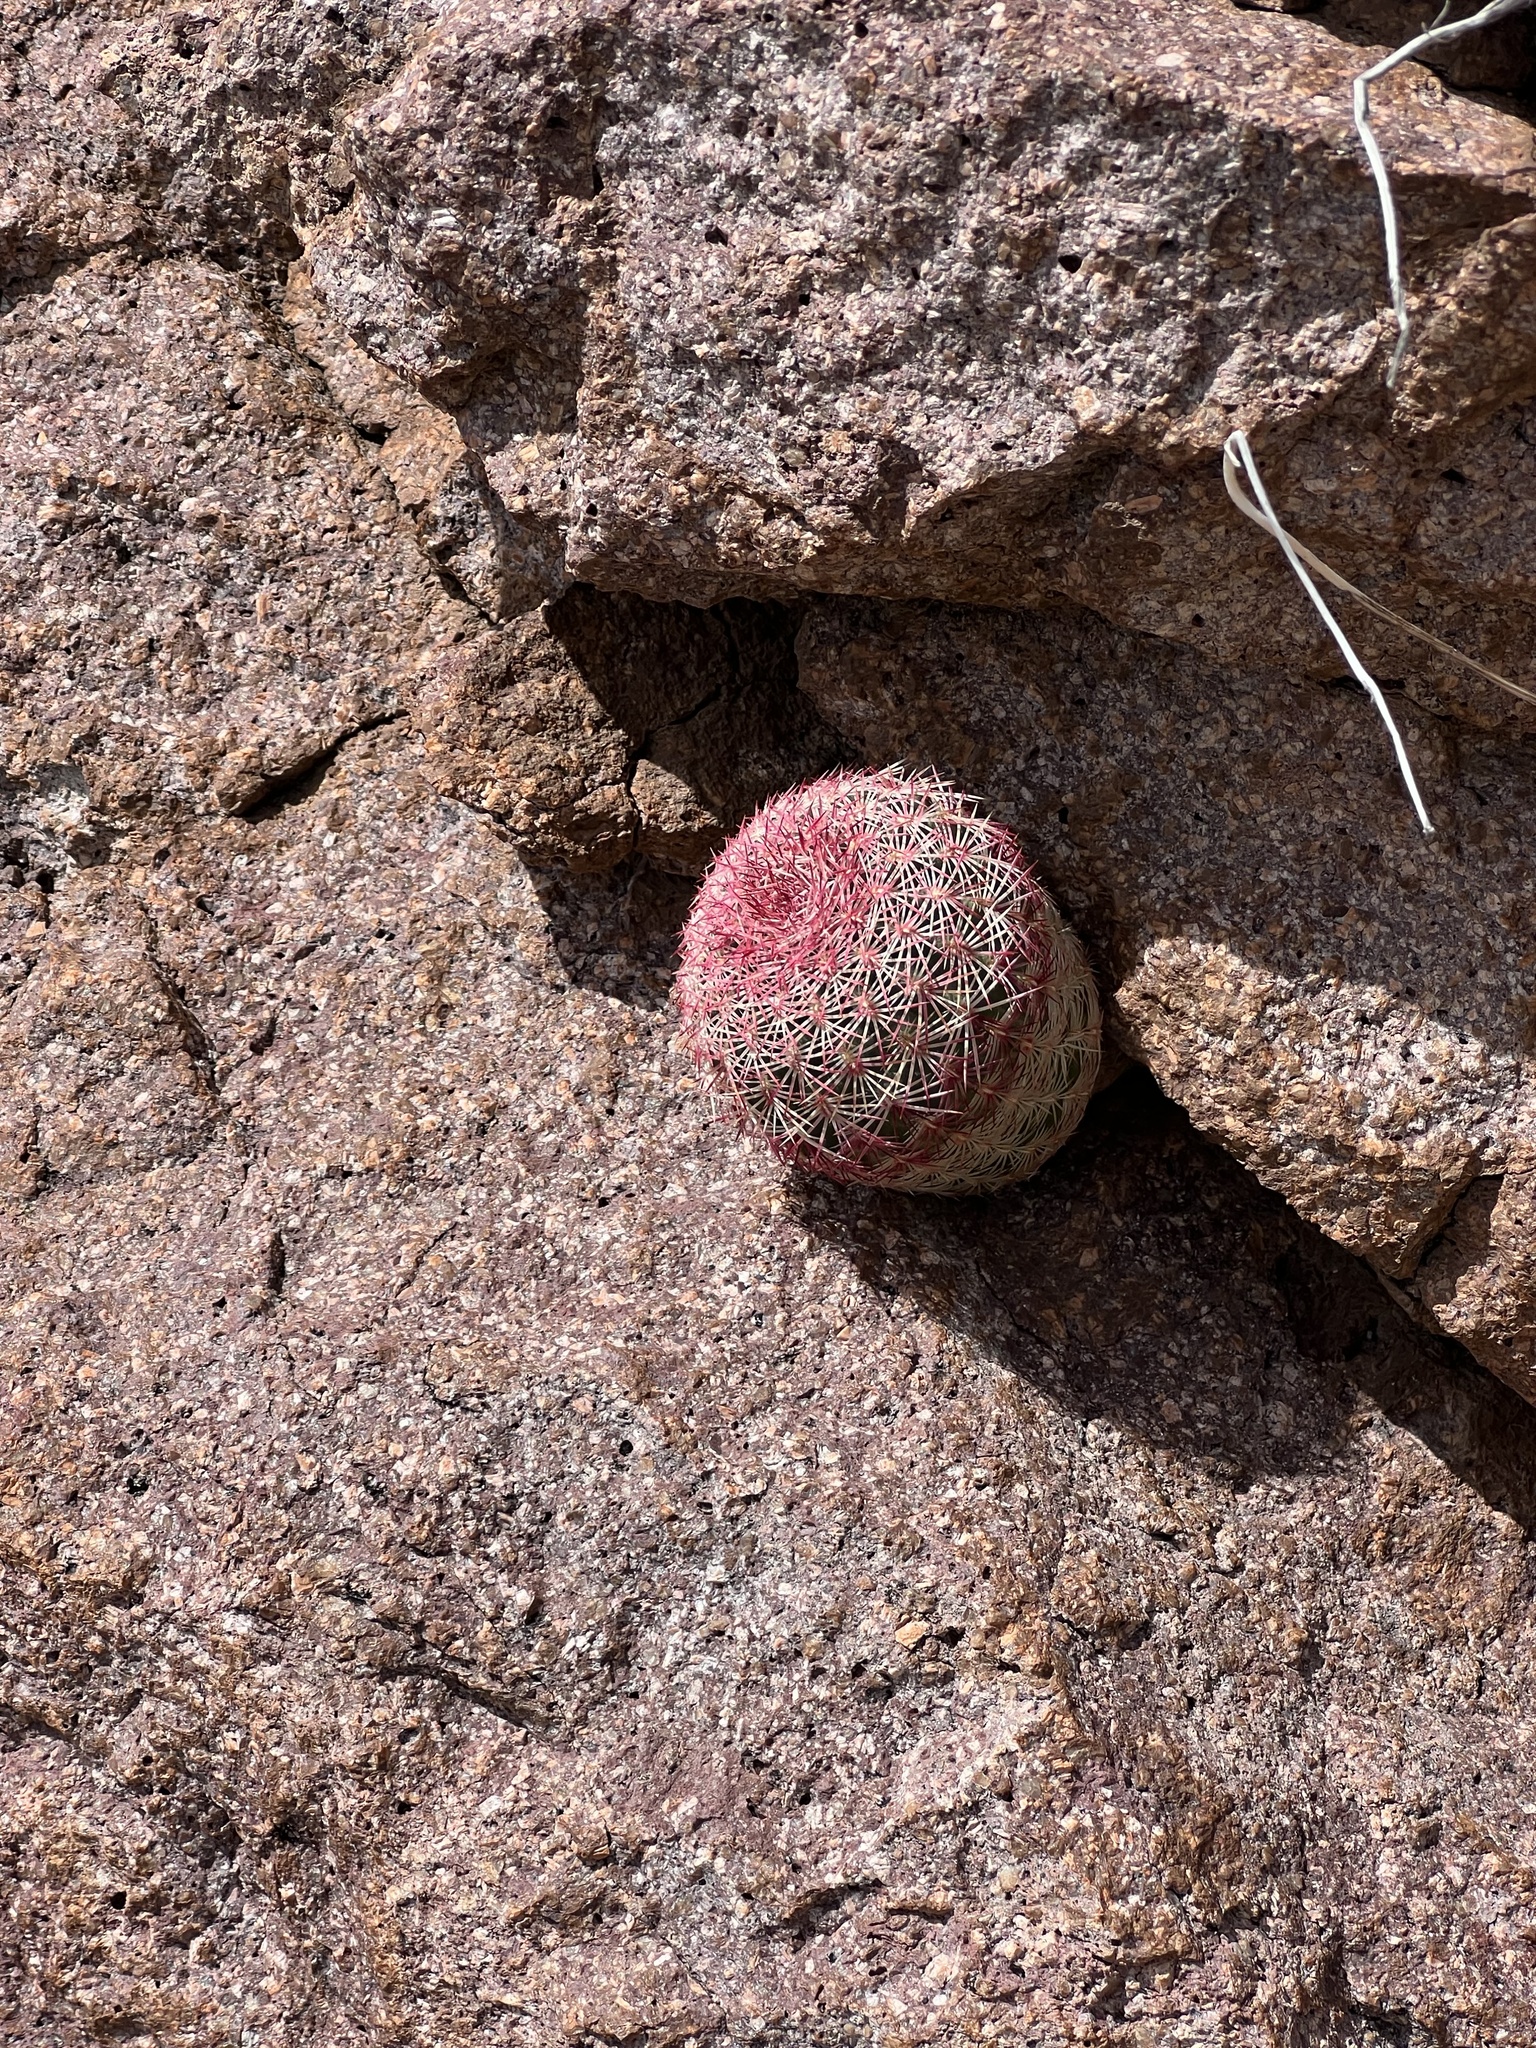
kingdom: Plantae
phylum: Tracheophyta
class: Magnoliopsida
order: Caryophyllales
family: Cactaceae
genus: Echinocereus
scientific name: Echinocereus rigidissimus
